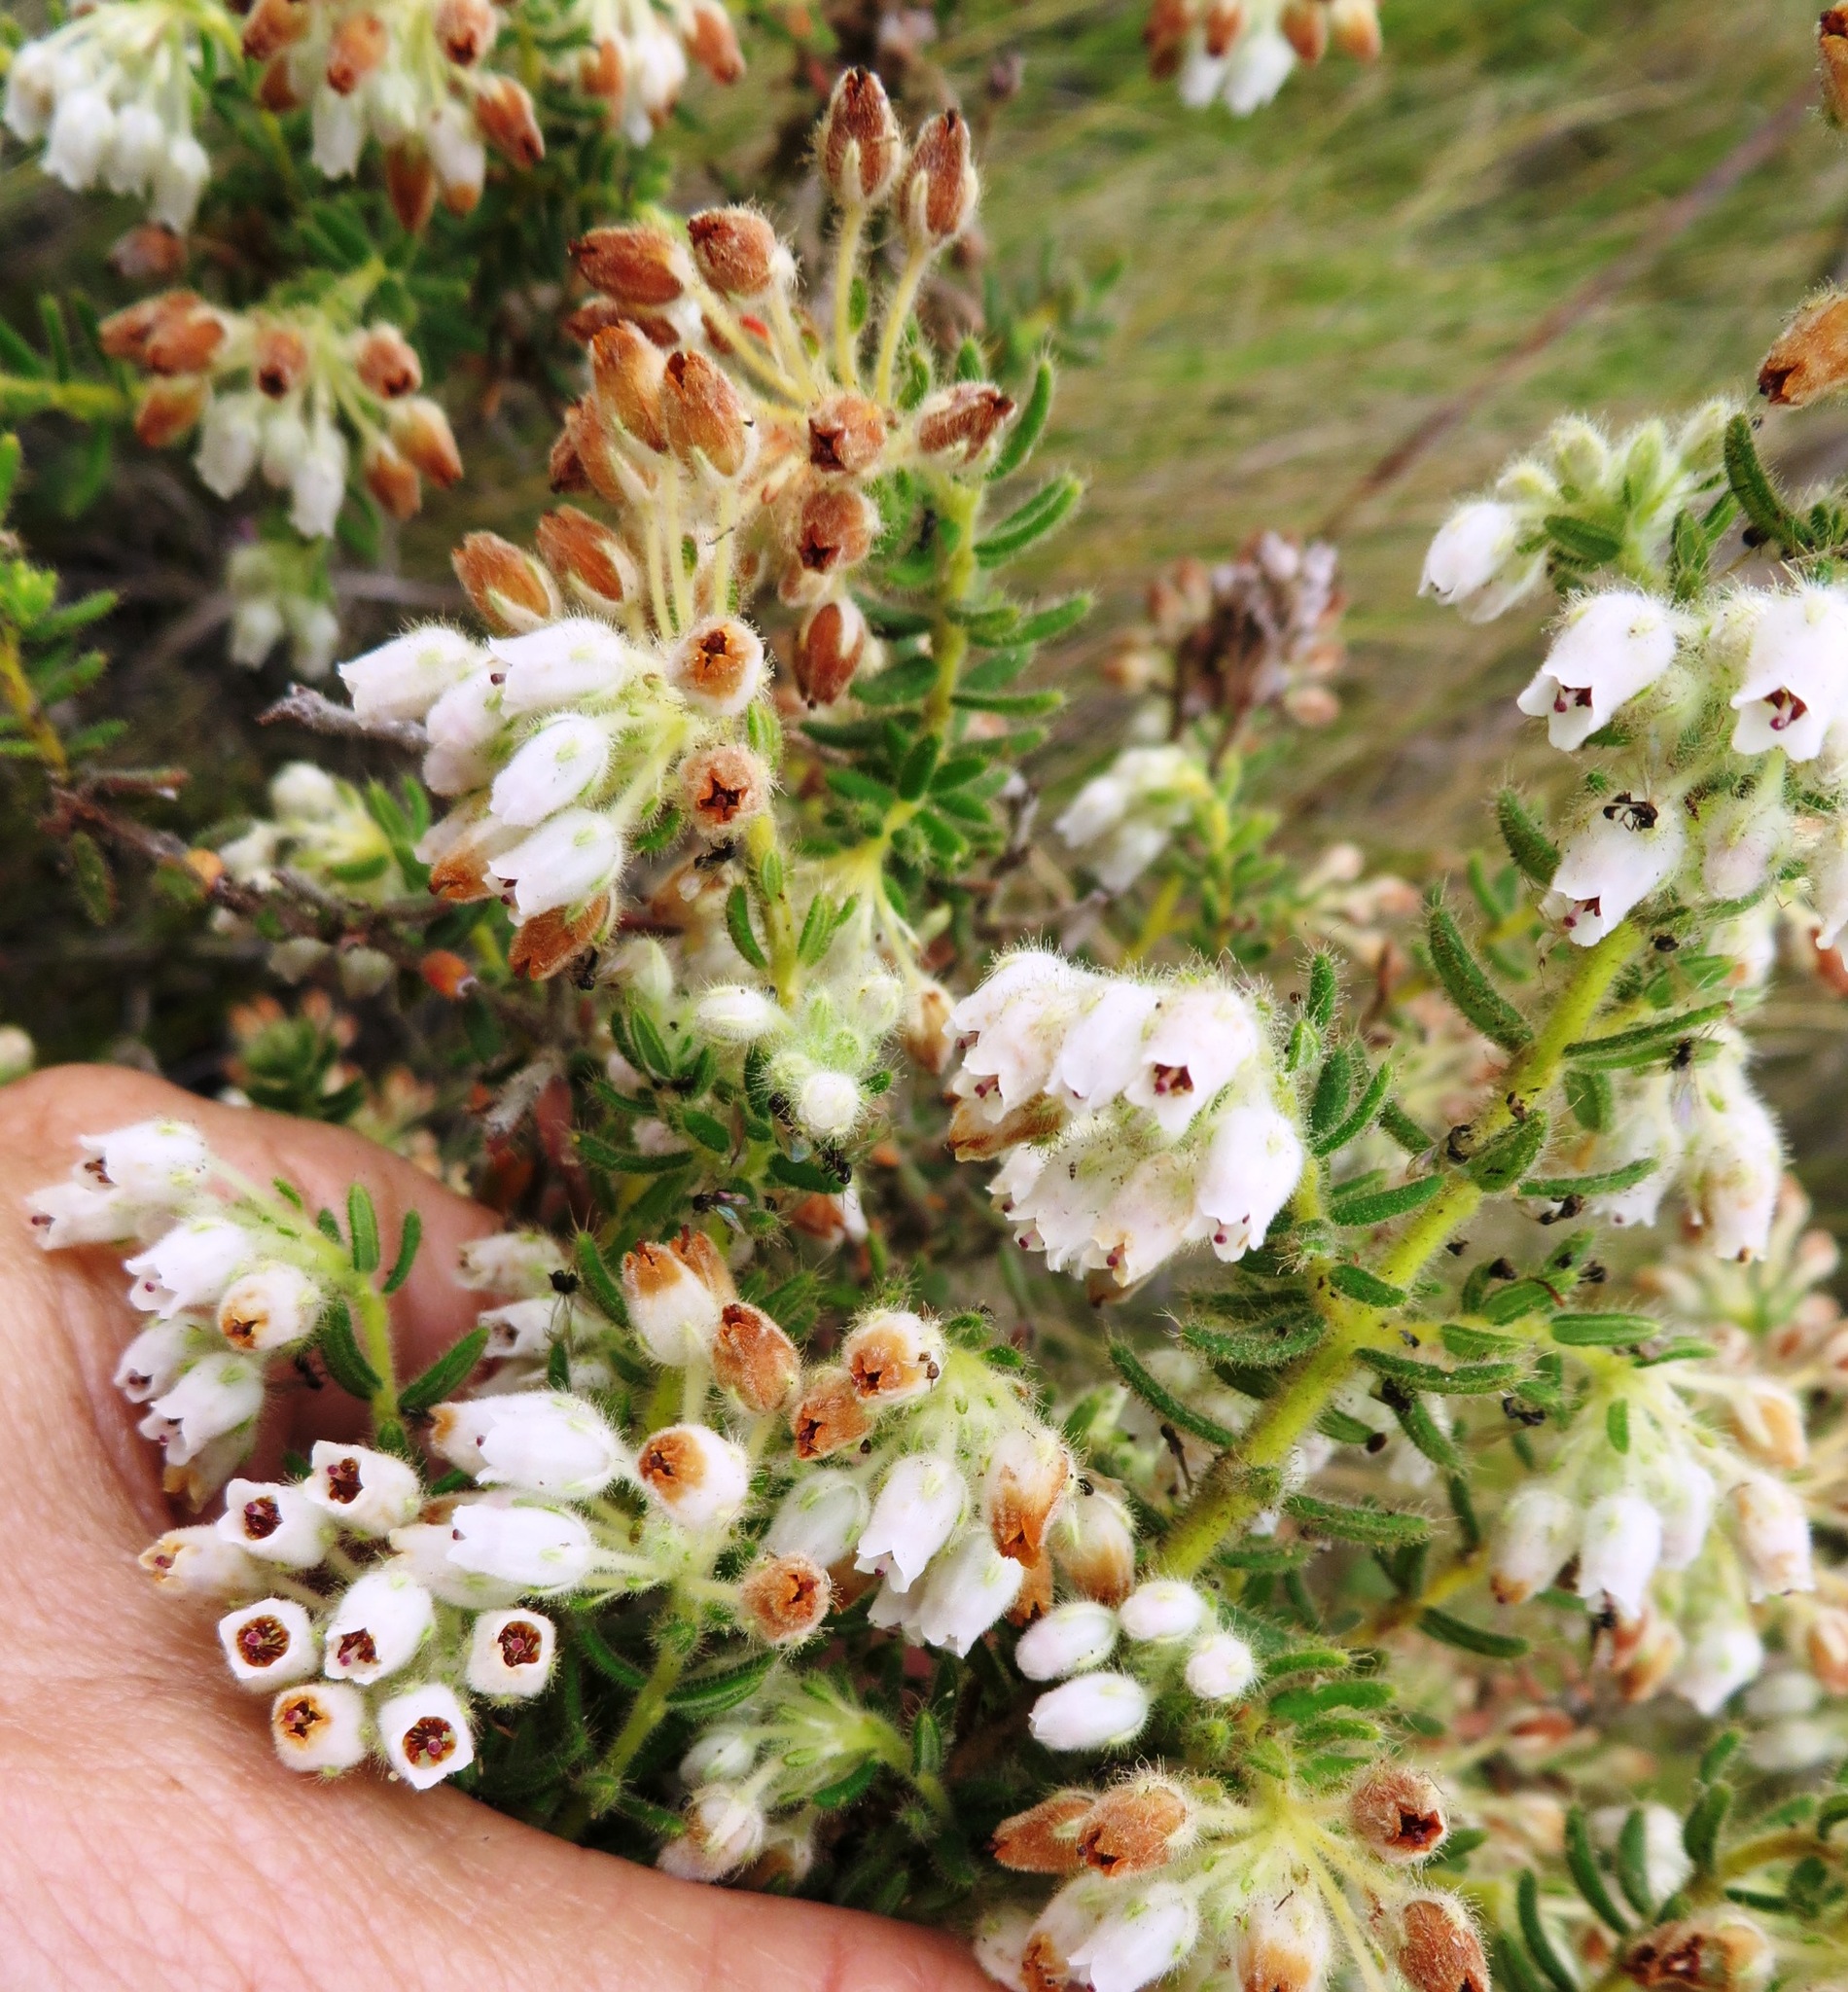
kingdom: Plantae
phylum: Tracheophyta
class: Magnoliopsida
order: Ericales
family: Ericaceae
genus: Erica
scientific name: Erica pannosa
